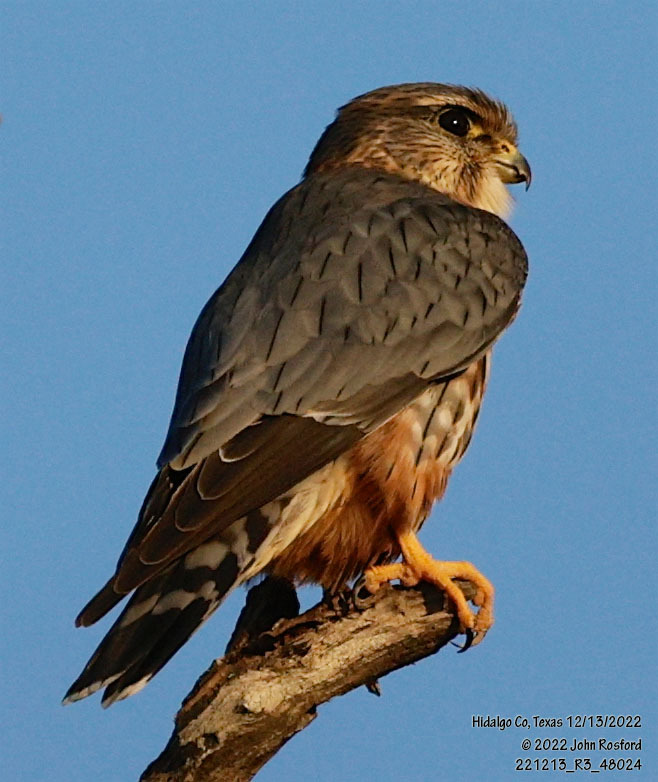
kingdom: Animalia
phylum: Chordata
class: Aves
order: Falconiformes
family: Falconidae
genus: Falco
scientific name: Falco columbarius
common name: Merlin
